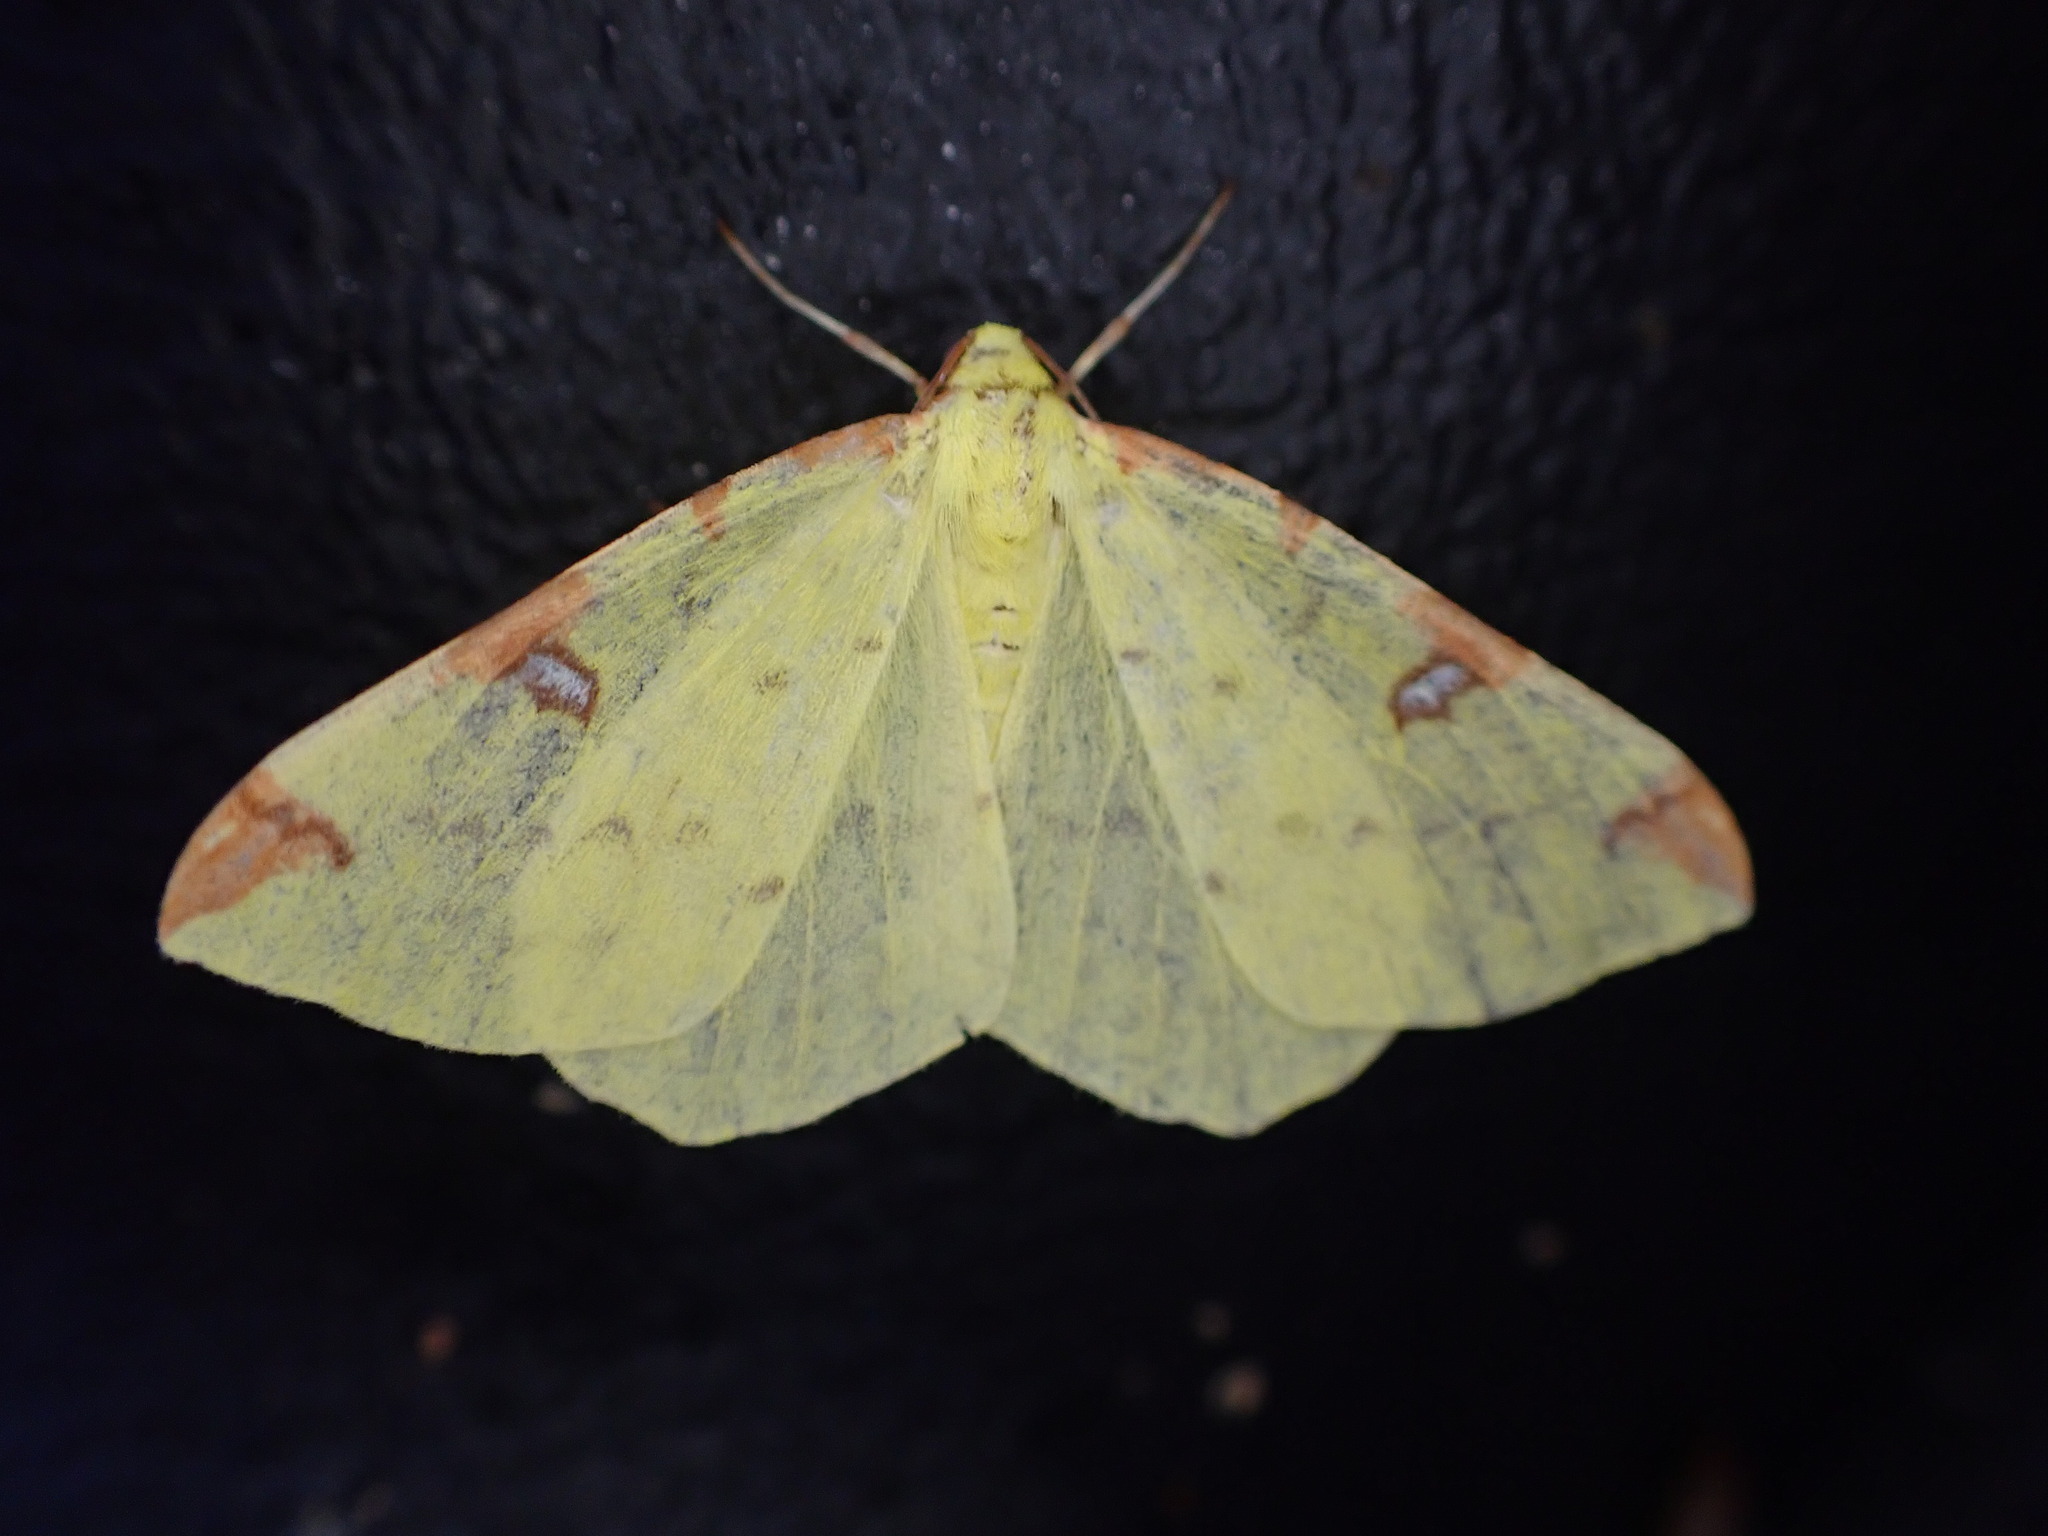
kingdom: Animalia
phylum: Arthropoda
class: Insecta
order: Lepidoptera
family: Geometridae
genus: Opisthograptis
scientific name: Opisthograptis luteolata
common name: Brimstone moth
